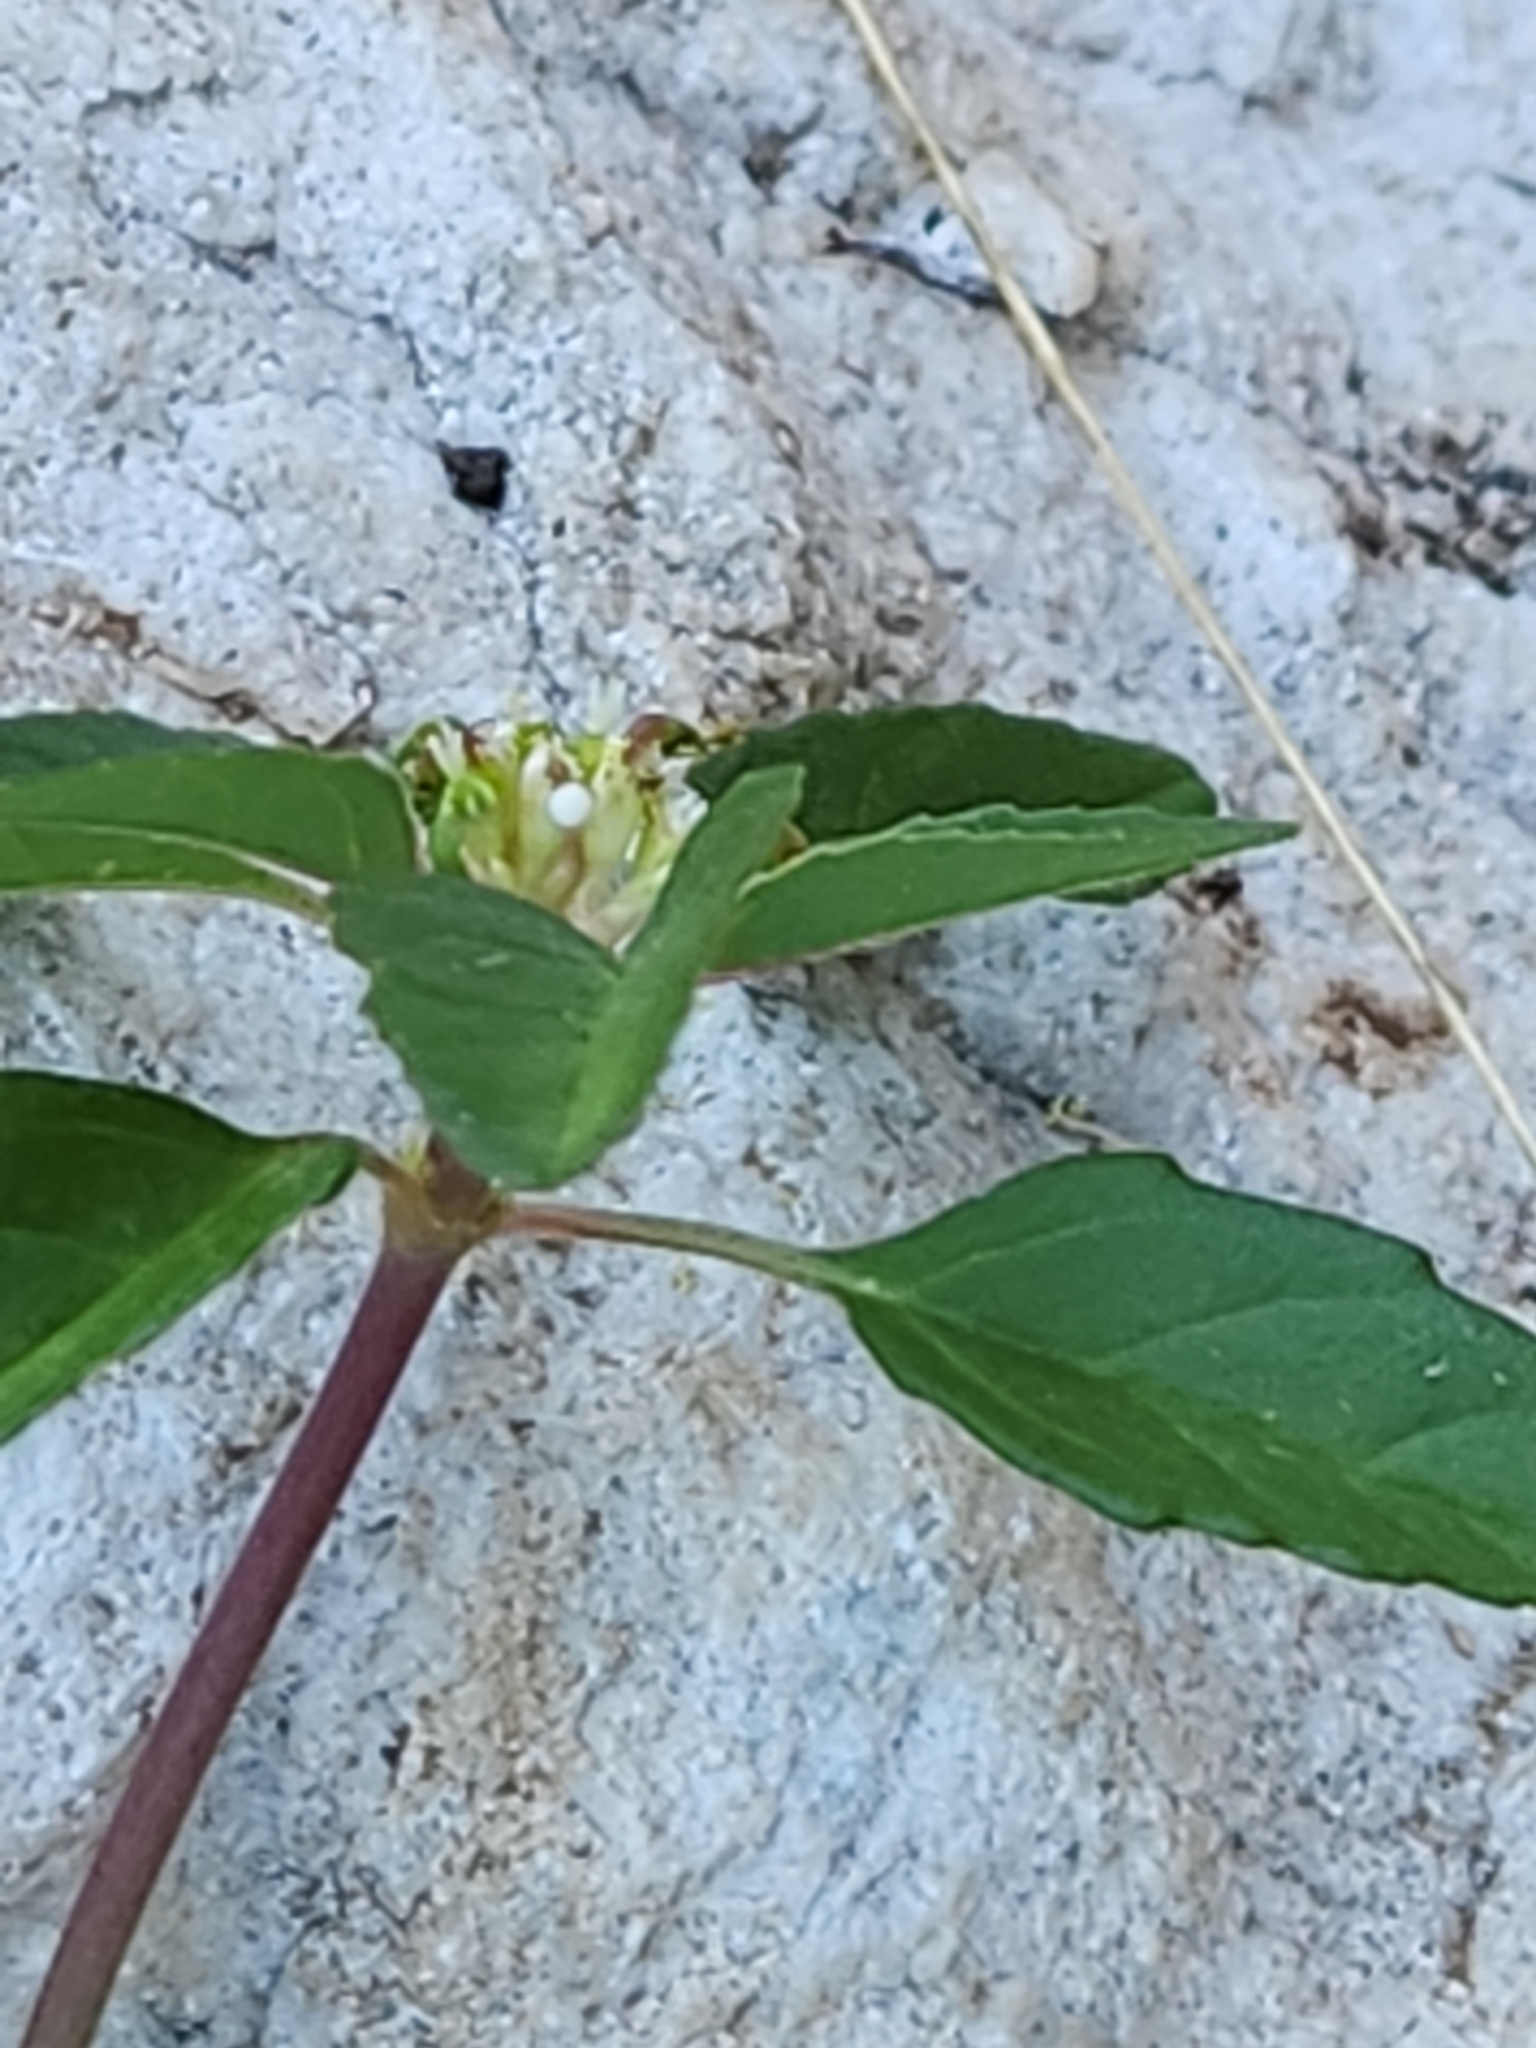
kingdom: Plantae
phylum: Tracheophyta
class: Magnoliopsida
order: Malpighiales
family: Euphorbiaceae
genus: Euphorbia
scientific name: Euphorbia dentata
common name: Dentate spurge
